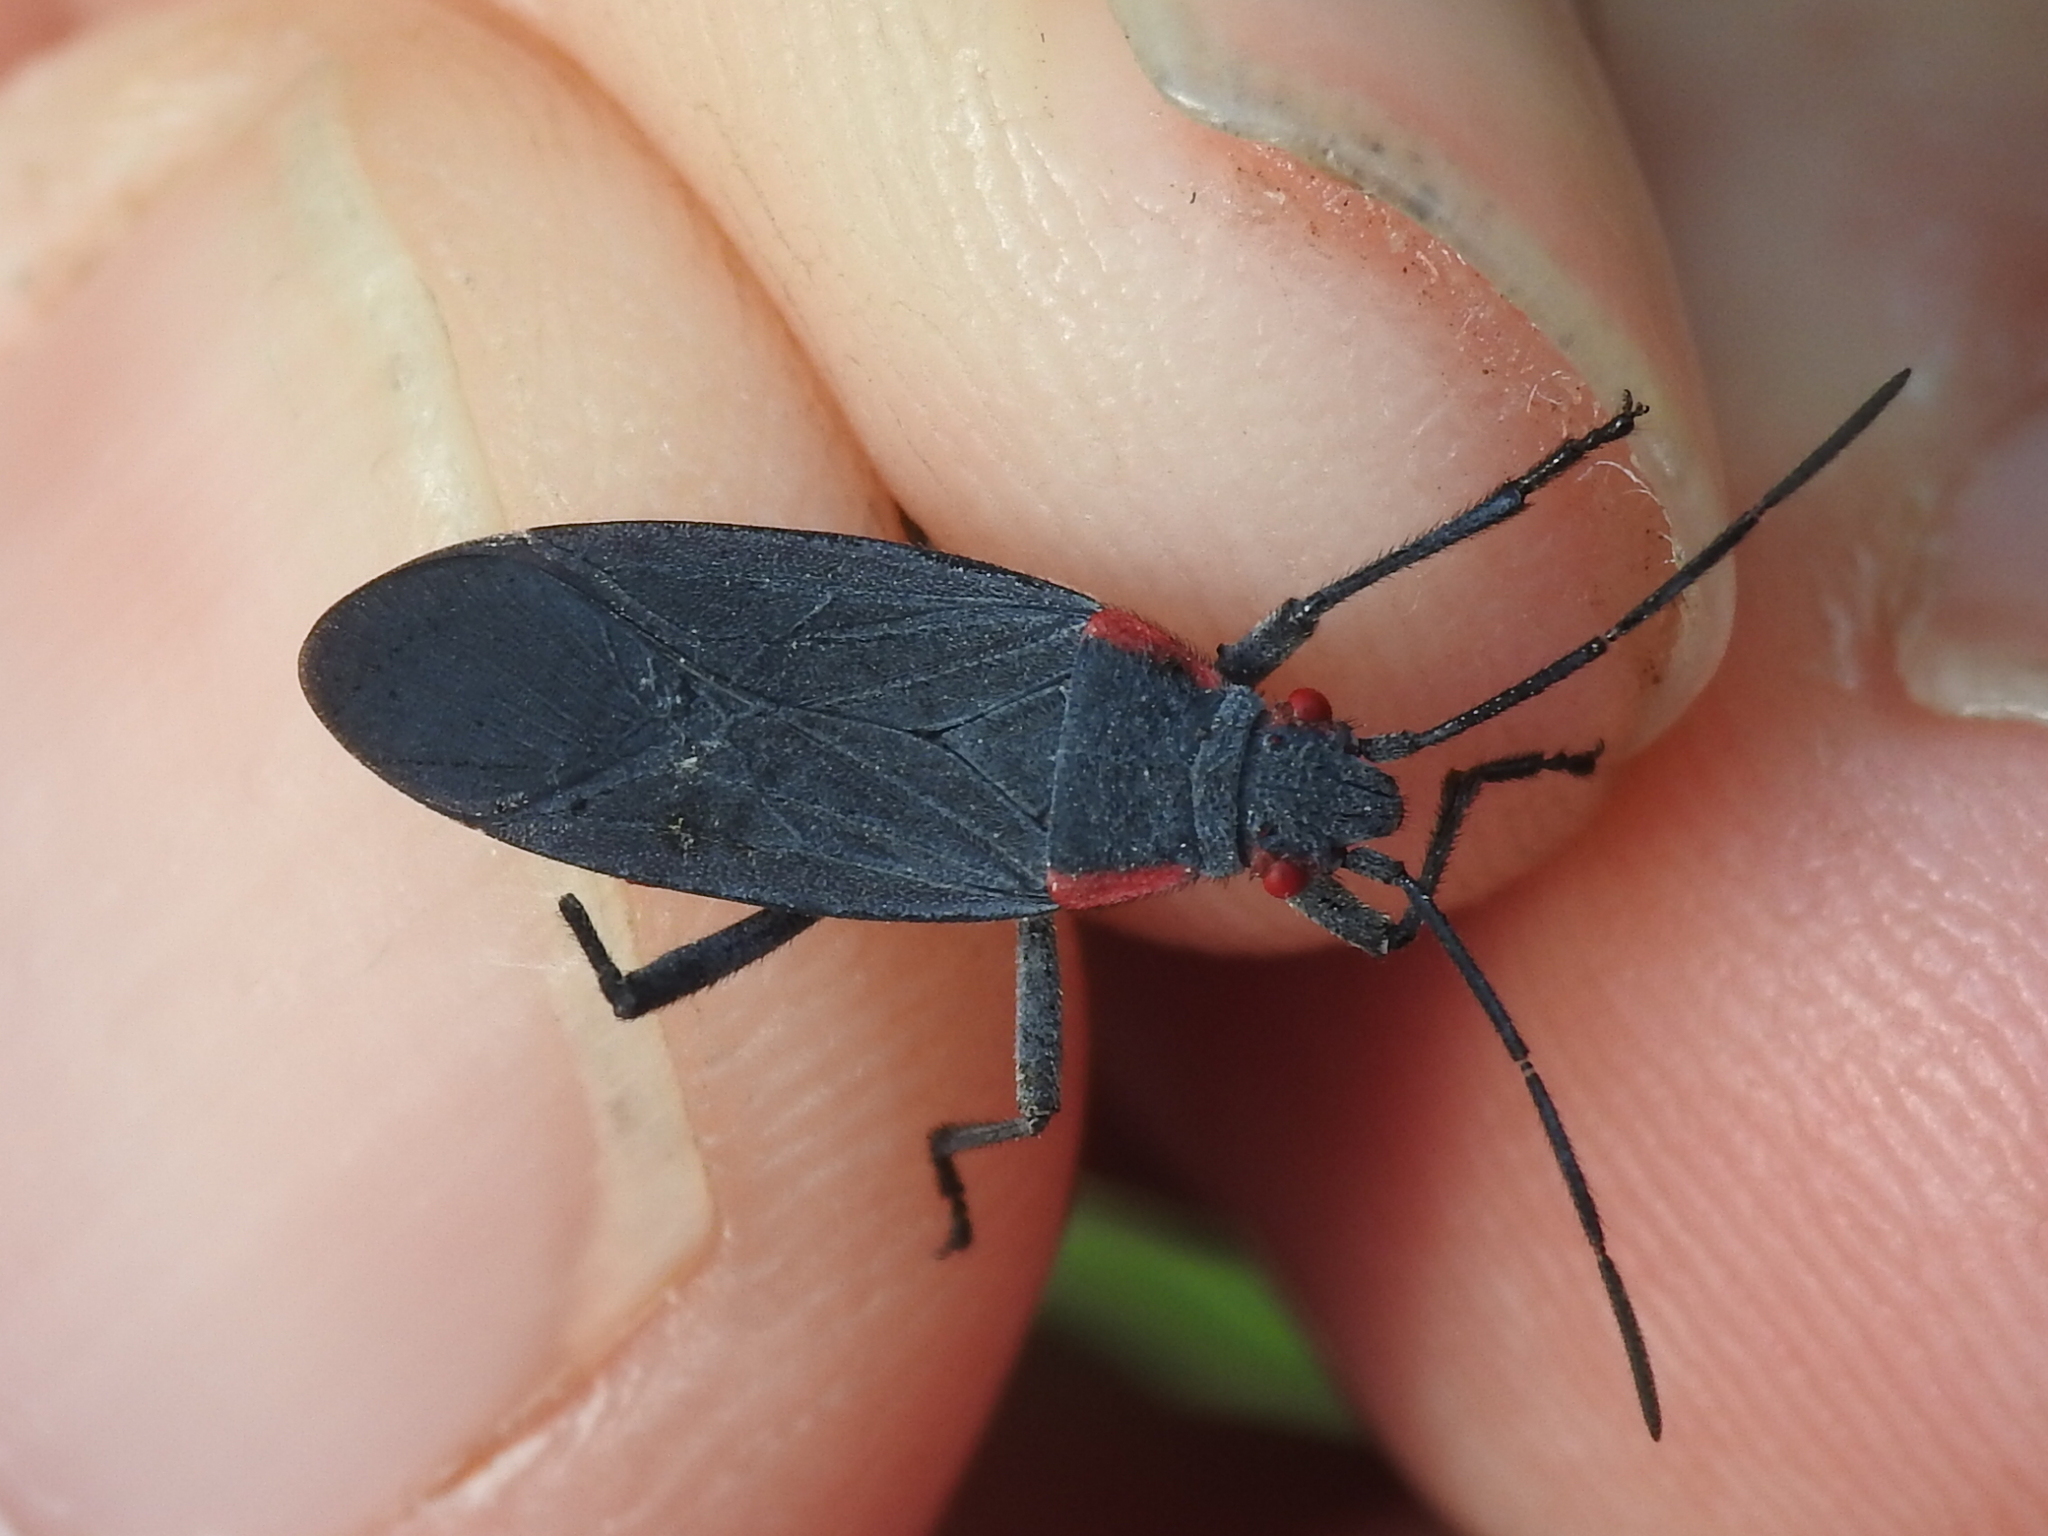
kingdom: Animalia
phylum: Arthropoda
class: Insecta
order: Hemiptera
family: Rhopalidae
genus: Jadera
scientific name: Jadera haematoloma
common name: Red-shouldered bug
